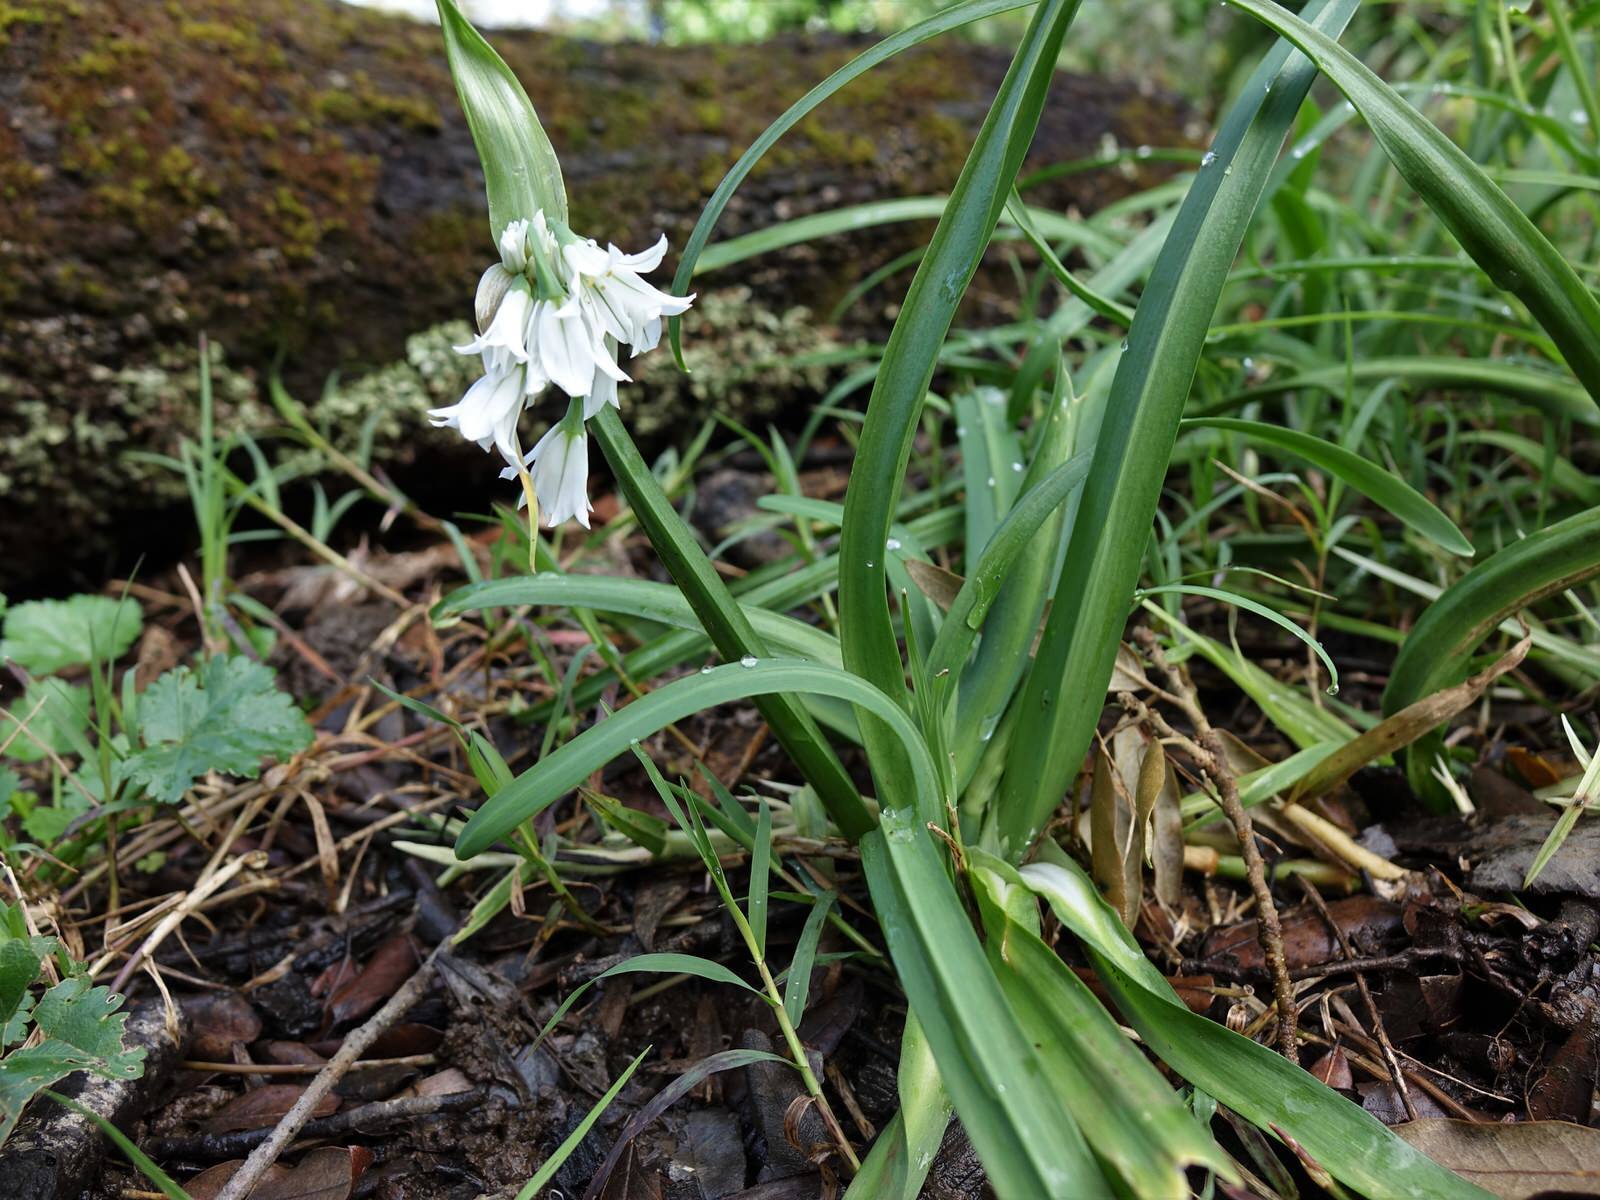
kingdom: Plantae
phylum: Tracheophyta
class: Liliopsida
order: Asparagales
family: Amaryllidaceae
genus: Allium
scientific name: Allium triquetrum
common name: Three-cornered garlic
